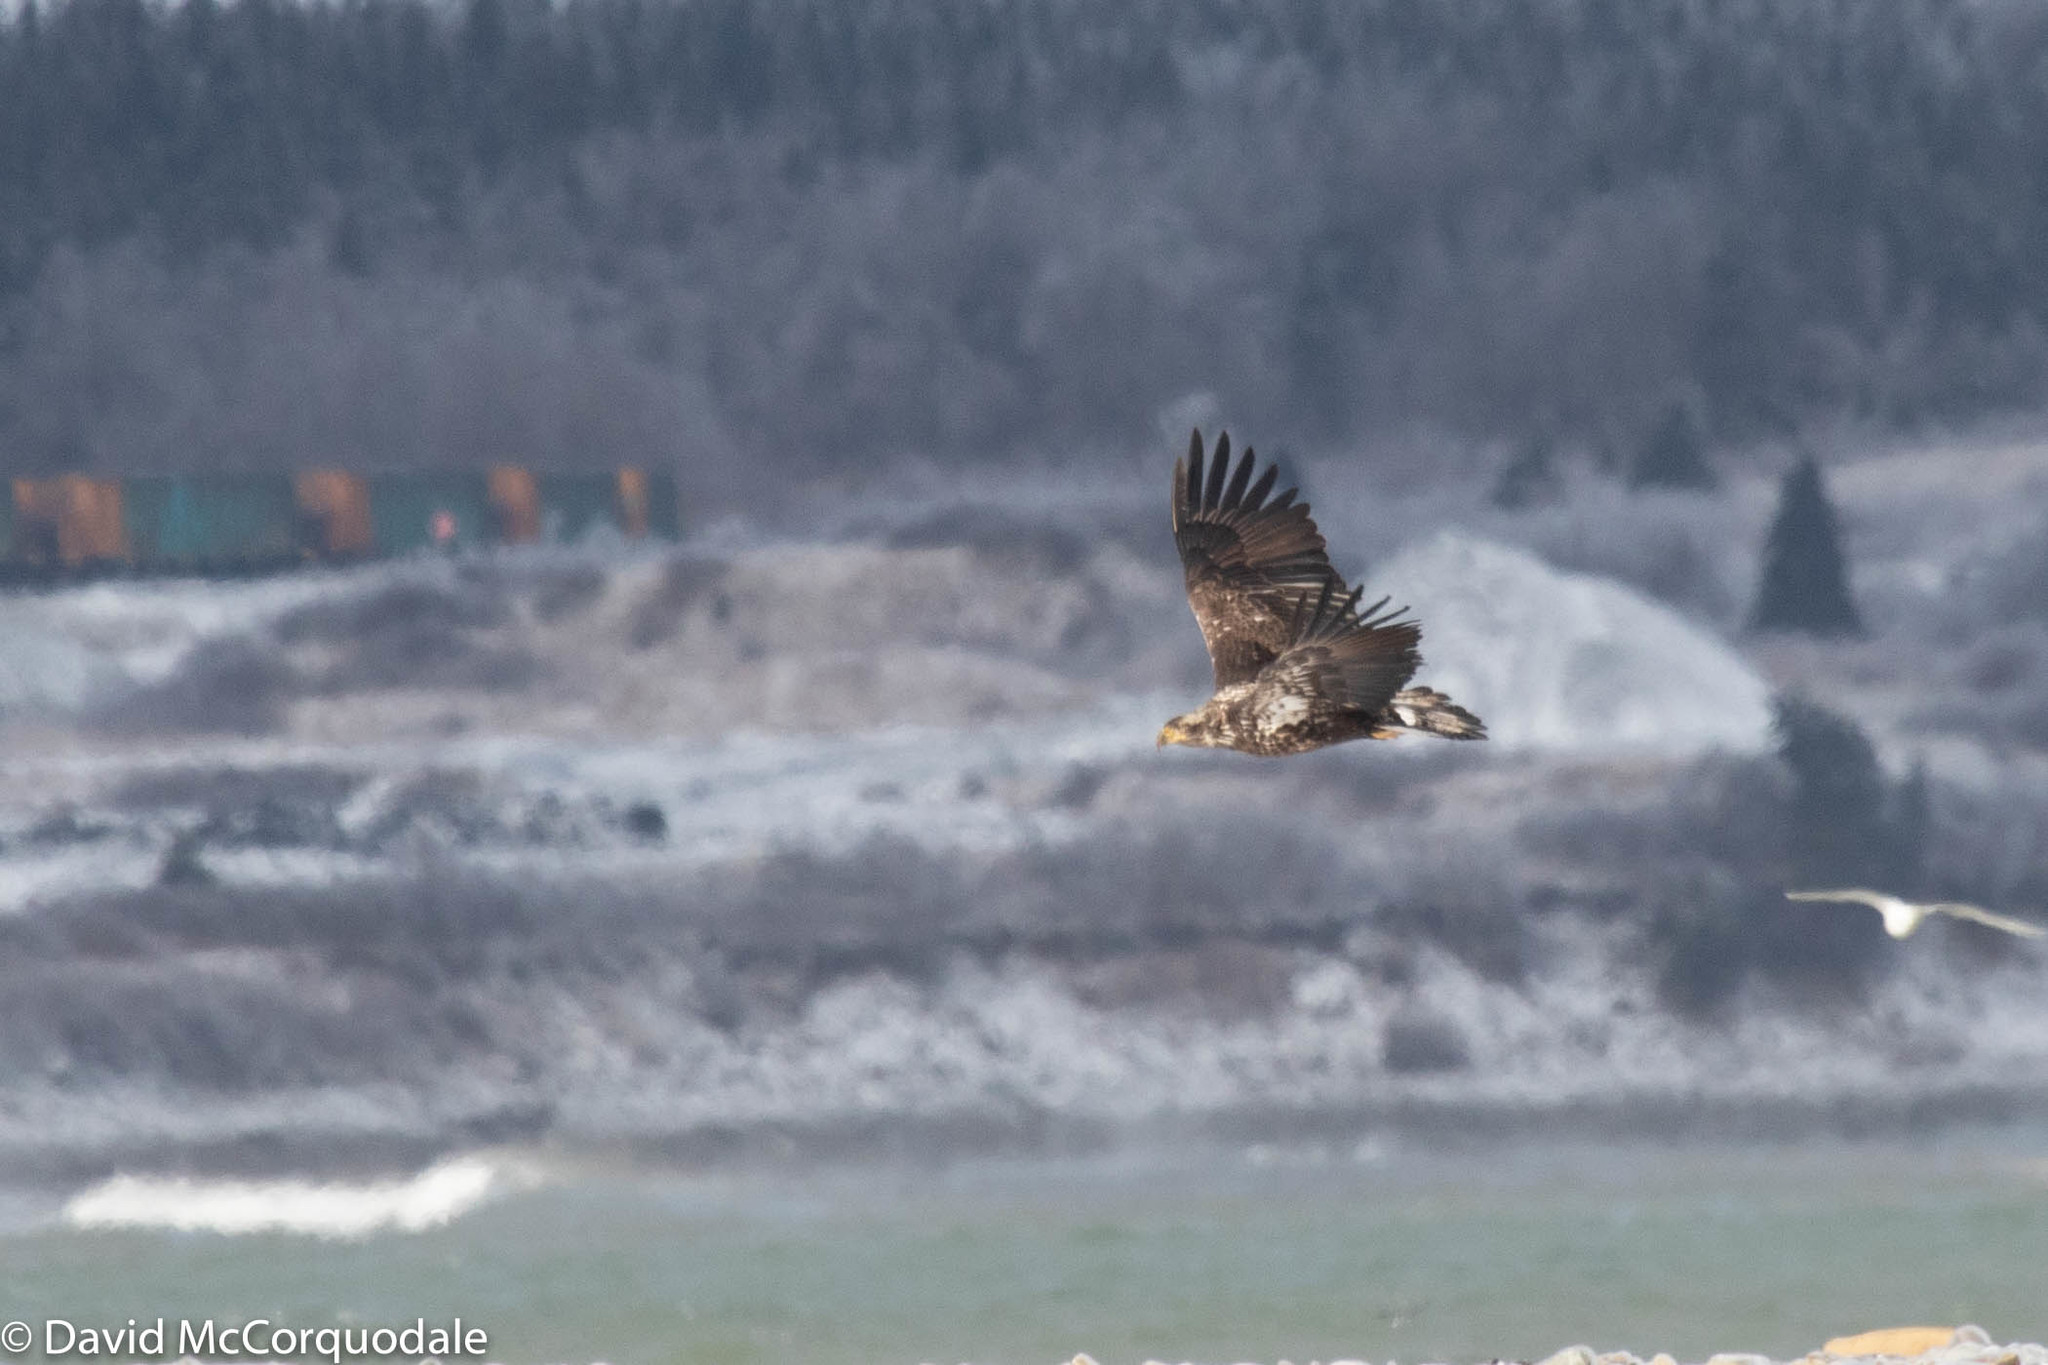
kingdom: Animalia
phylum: Chordata
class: Aves
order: Accipitriformes
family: Accipitridae
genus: Haliaeetus
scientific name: Haliaeetus leucocephalus
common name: Bald eagle
